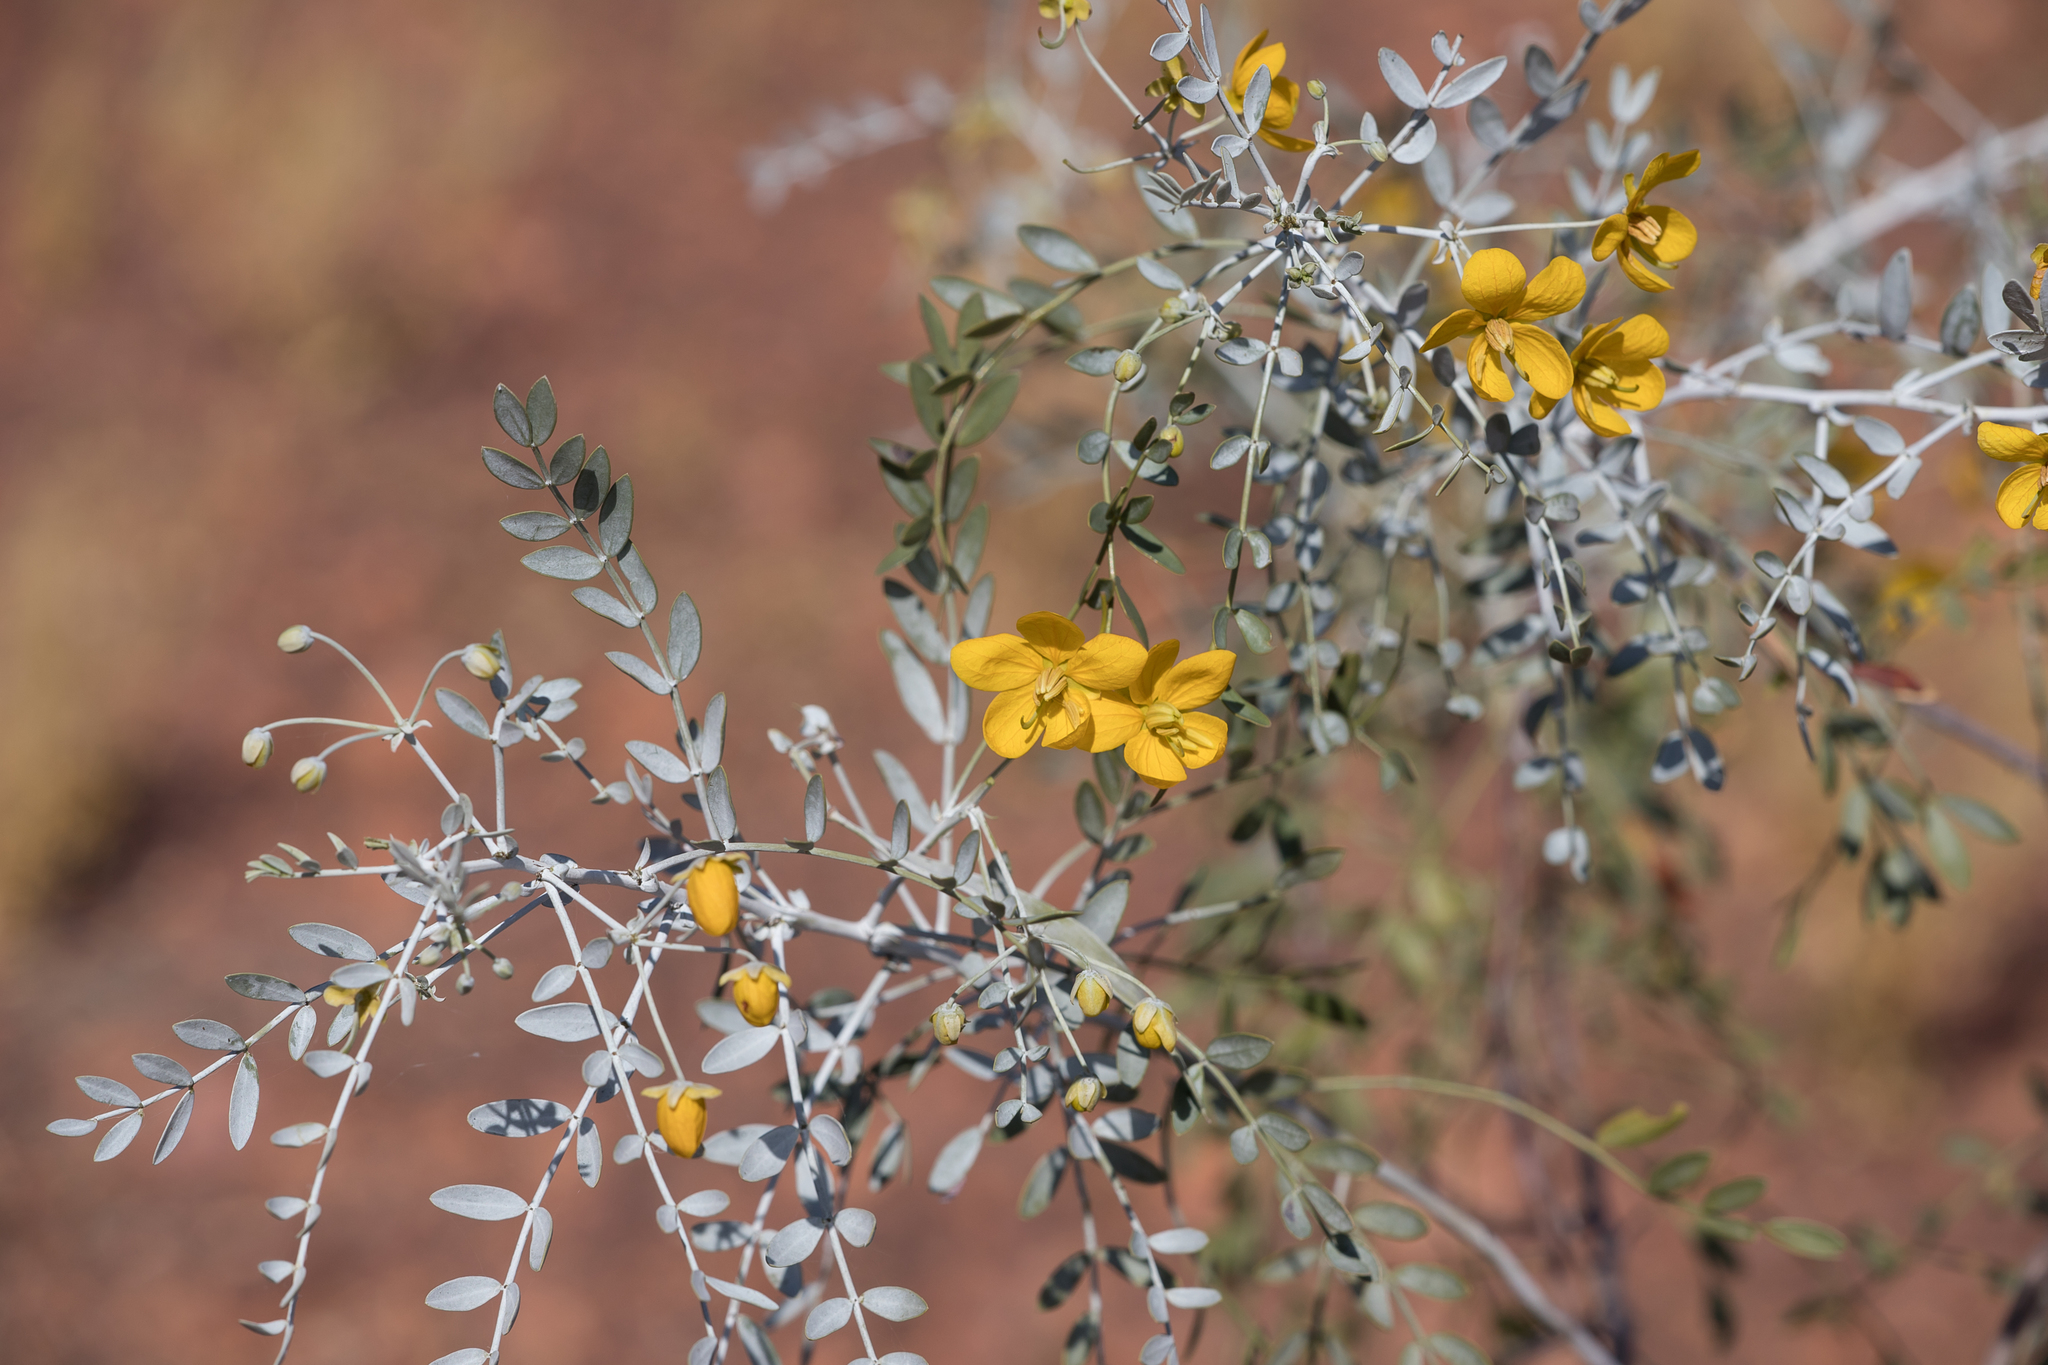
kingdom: Plantae
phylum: Tracheophyta
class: Magnoliopsida
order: Fabales
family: Fabaceae
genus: Senna
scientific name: Senna glutinosa
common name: Green acacia
